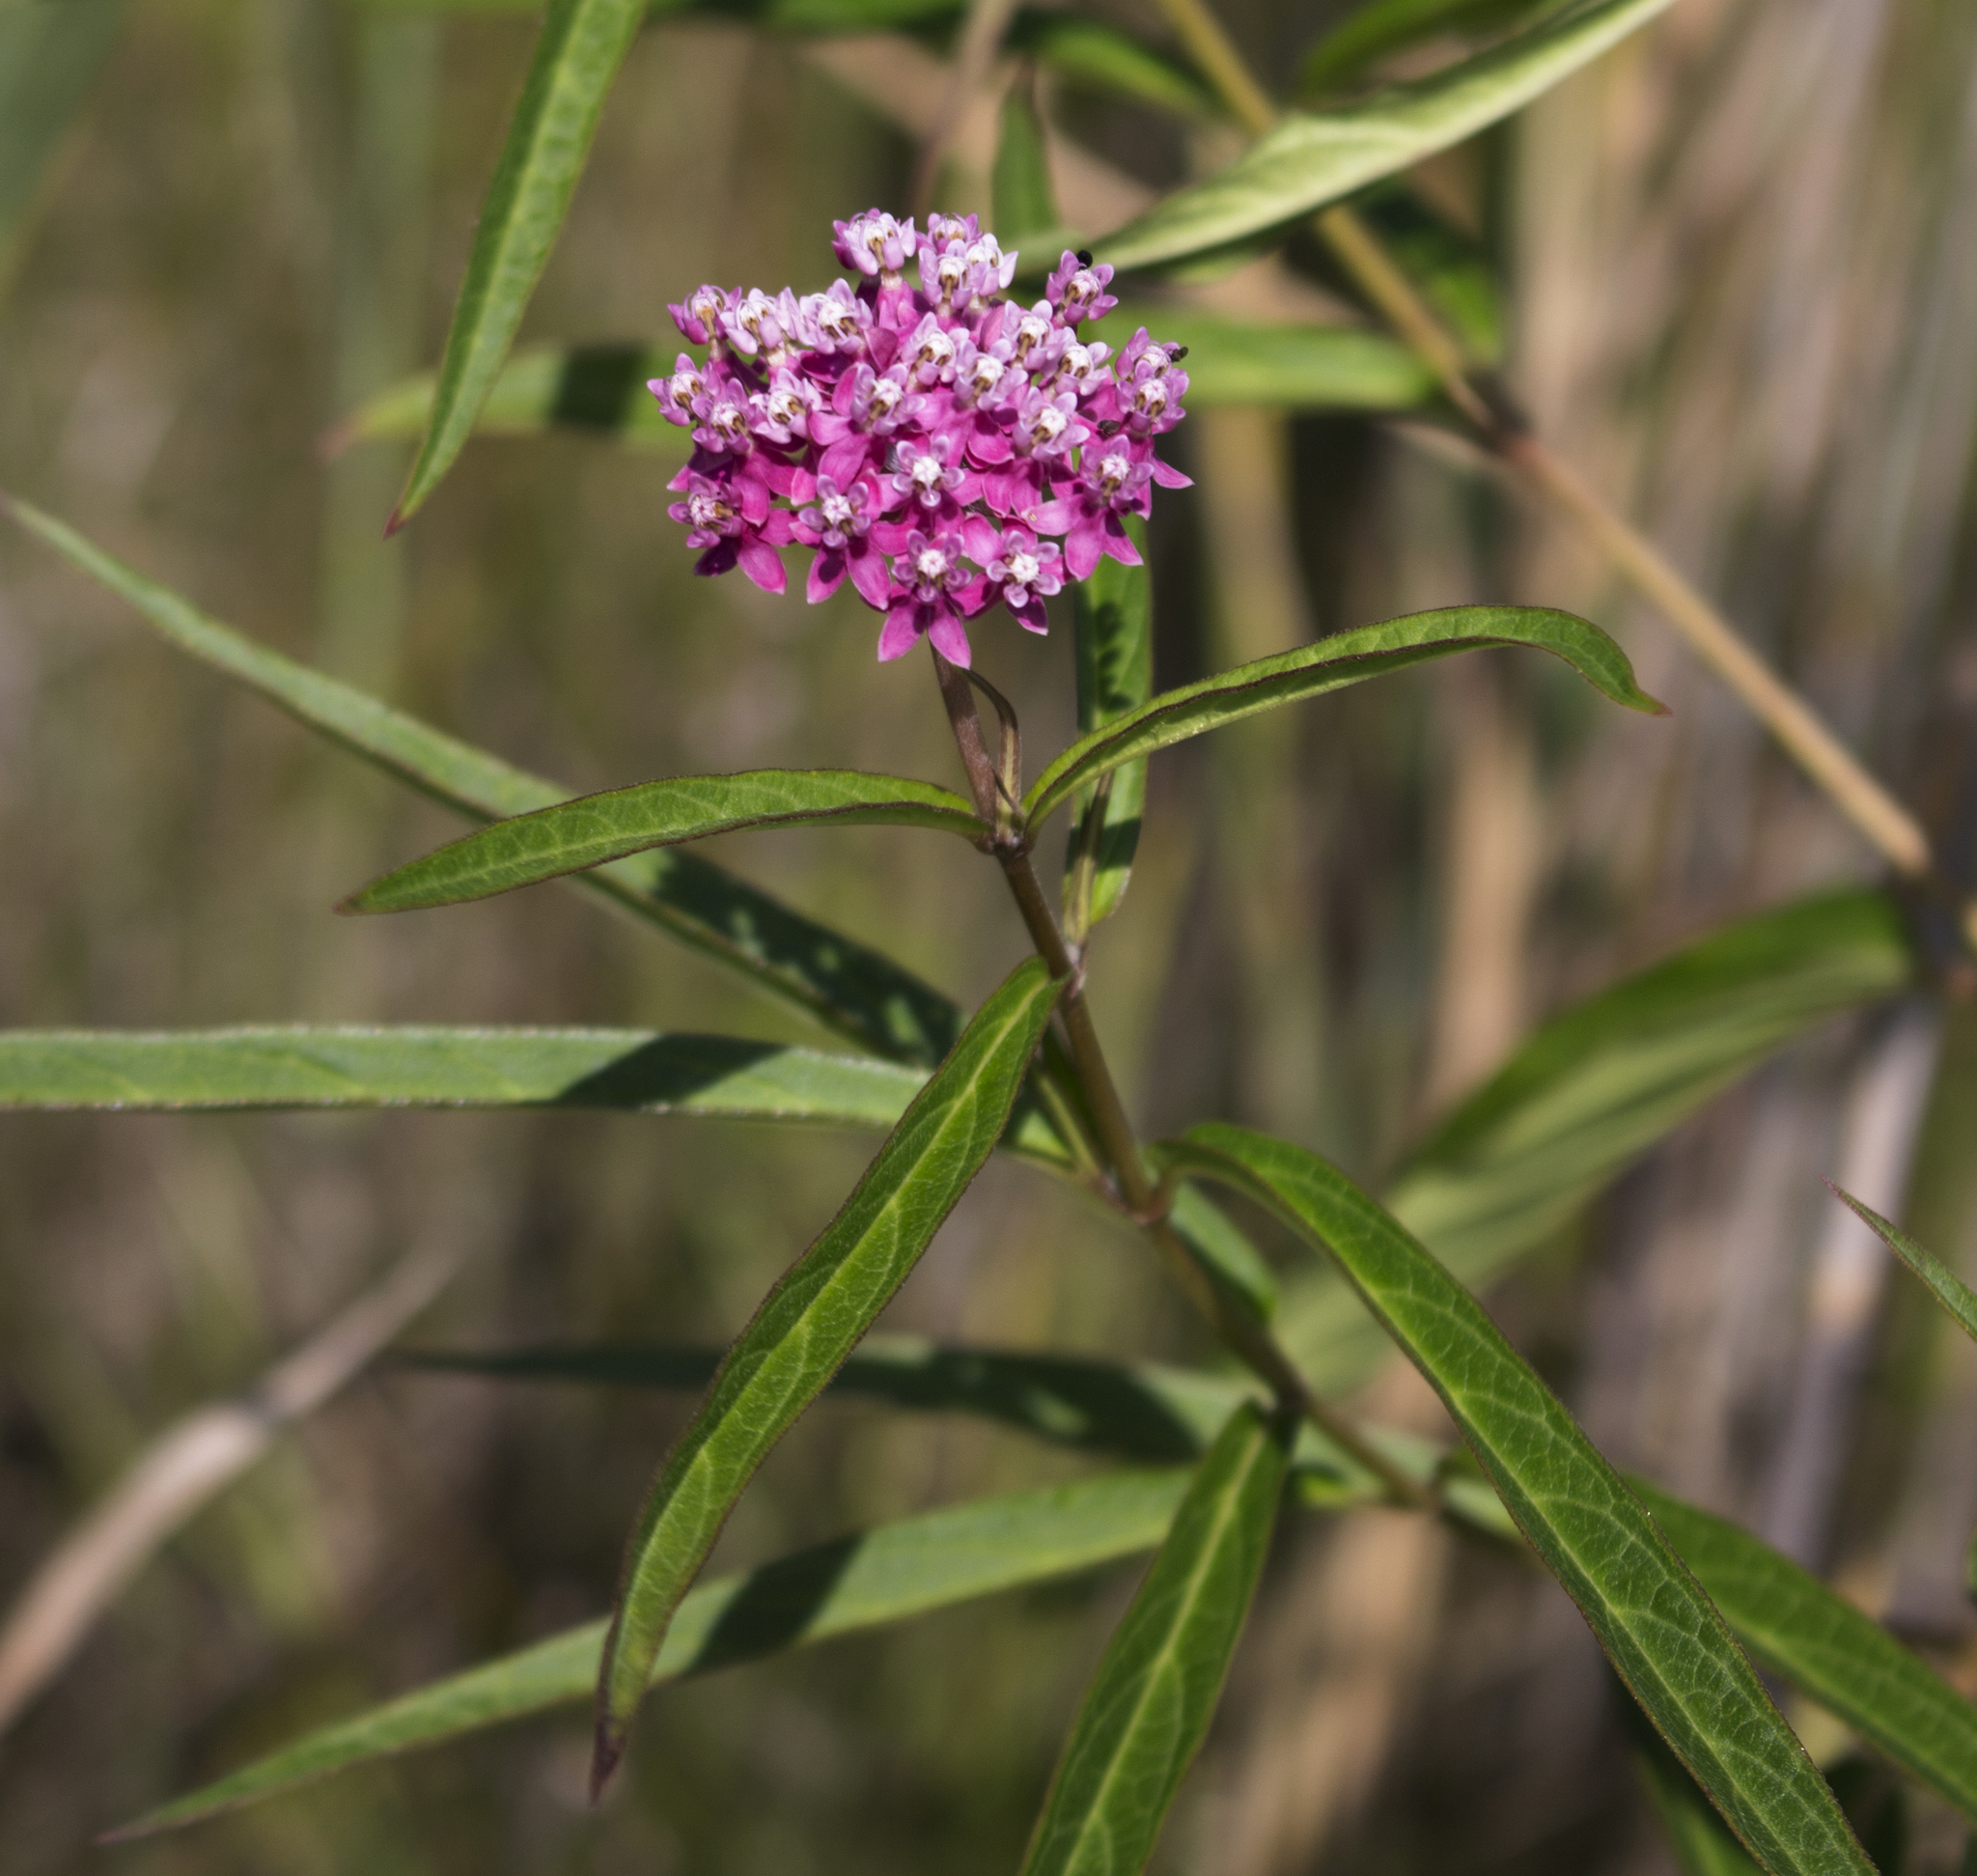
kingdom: Plantae
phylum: Tracheophyta
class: Magnoliopsida
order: Gentianales
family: Apocynaceae
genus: Asclepias
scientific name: Asclepias incarnata
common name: Swamp milkweed
